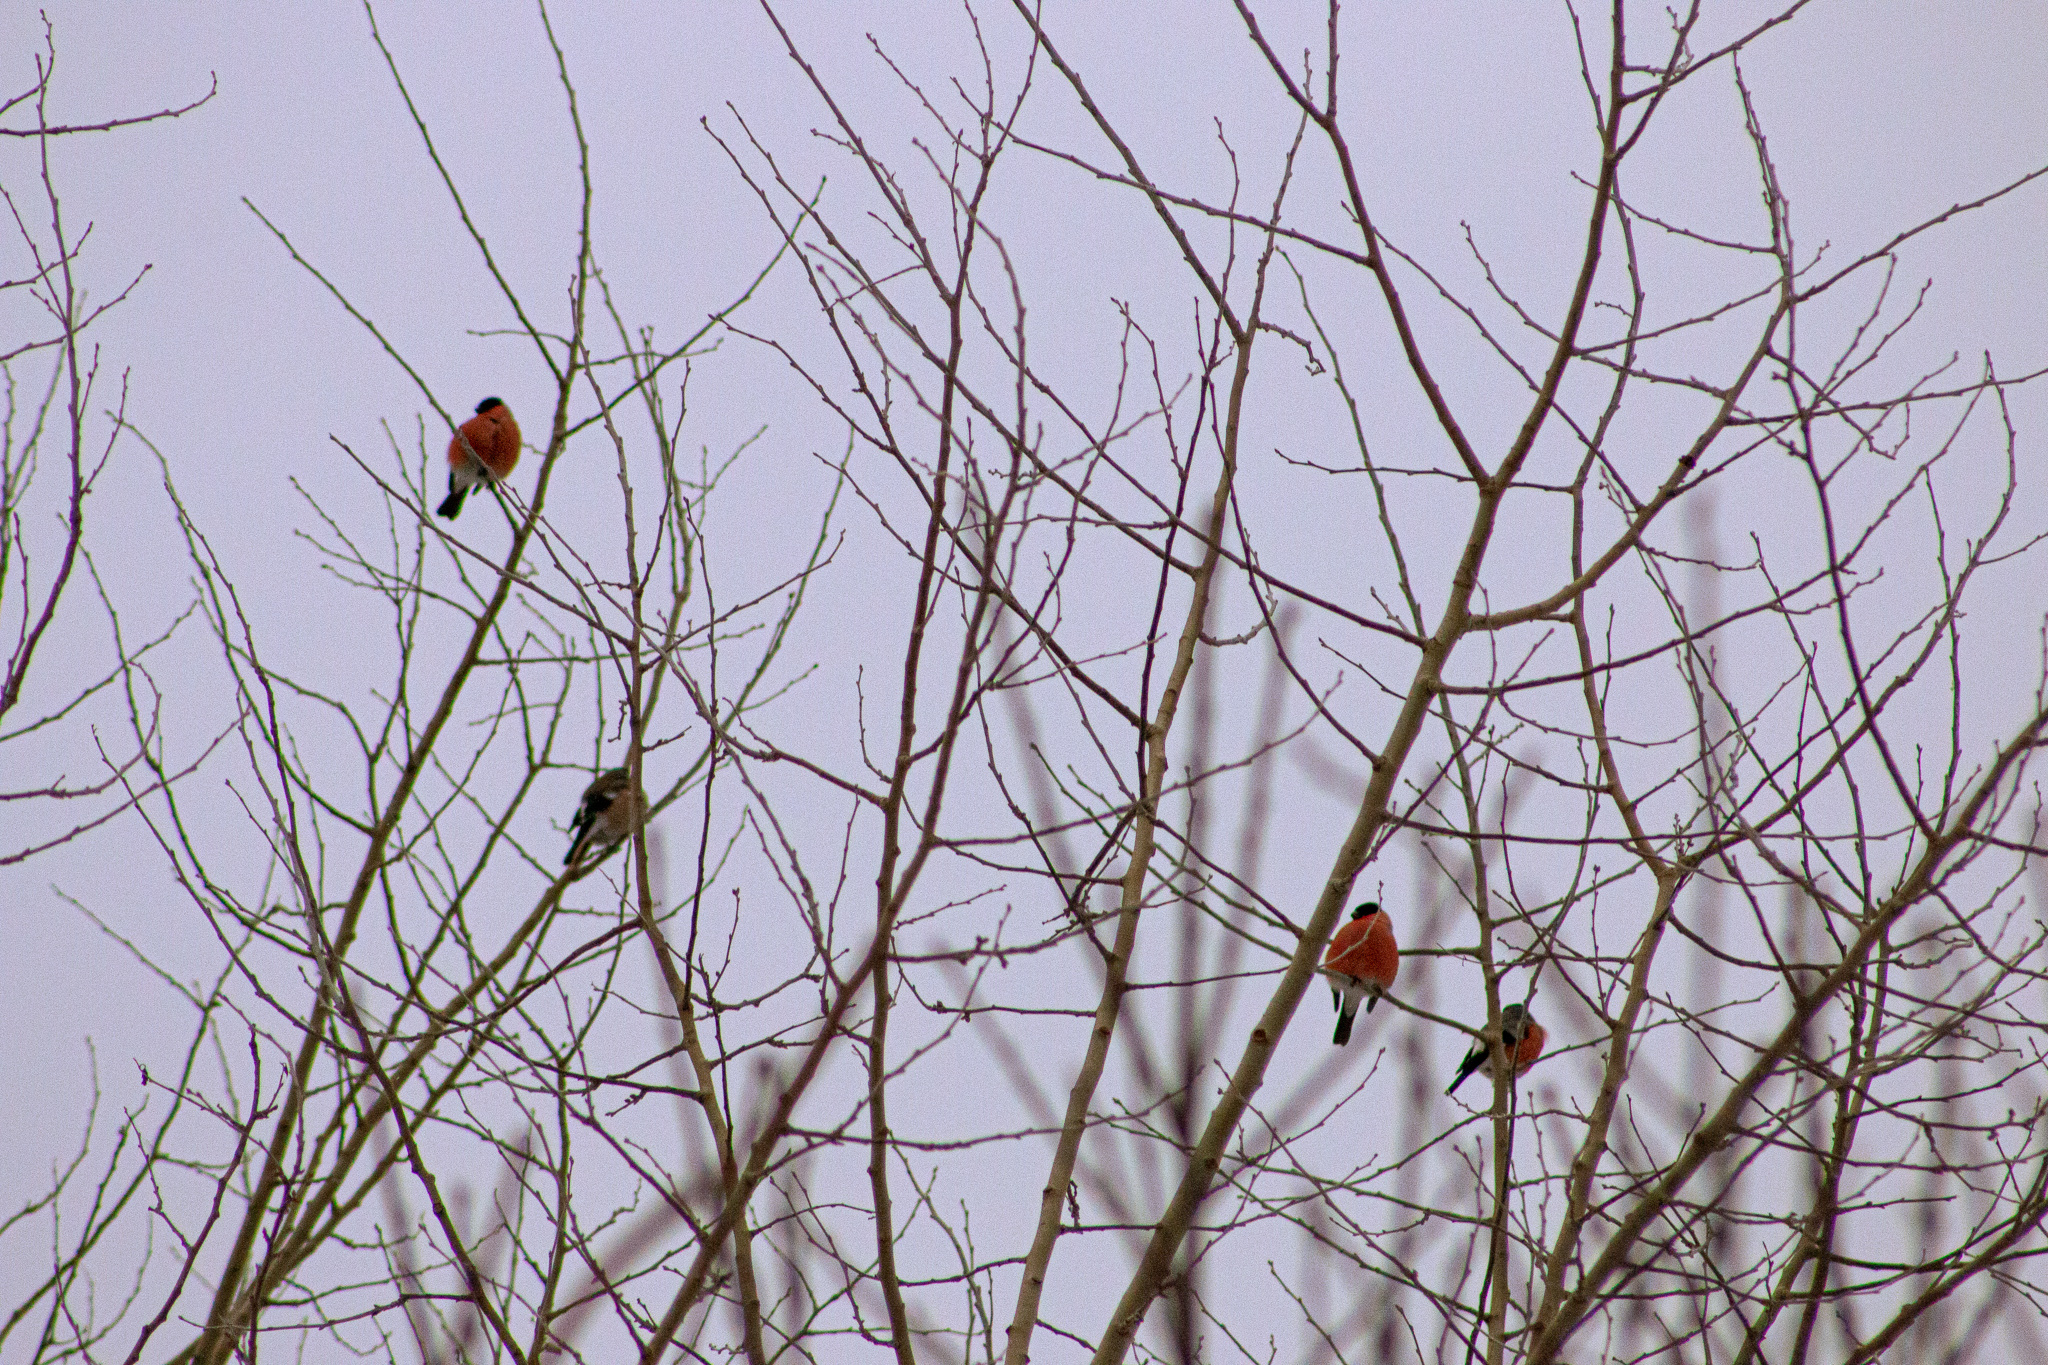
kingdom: Animalia
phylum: Chordata
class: Aves
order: Passeriformes
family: Fringillidae
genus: Pyrrhula
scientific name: Pyrrhula pyrrhula
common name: Eurasian bullfinch
